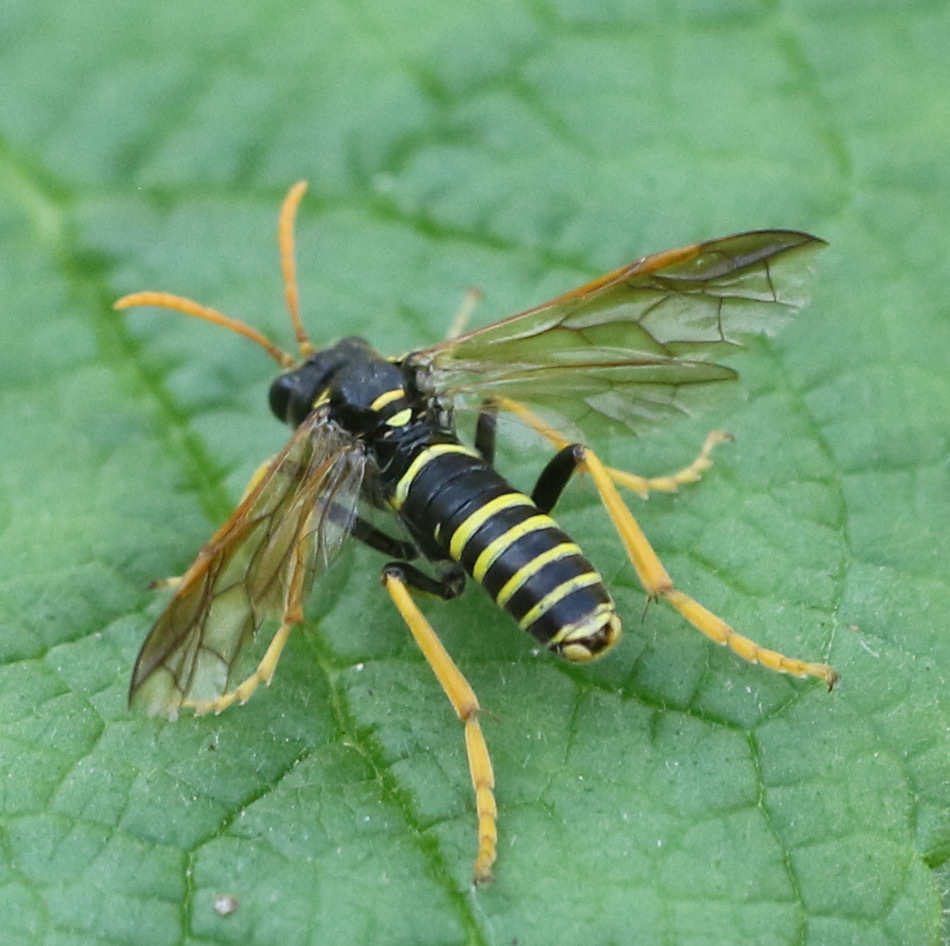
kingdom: Animalia
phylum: Arthropoda
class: Insecta
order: Hymenoptera
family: Tenthredinidae
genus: Tenthredo
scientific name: Tenthredo scrophulariae
